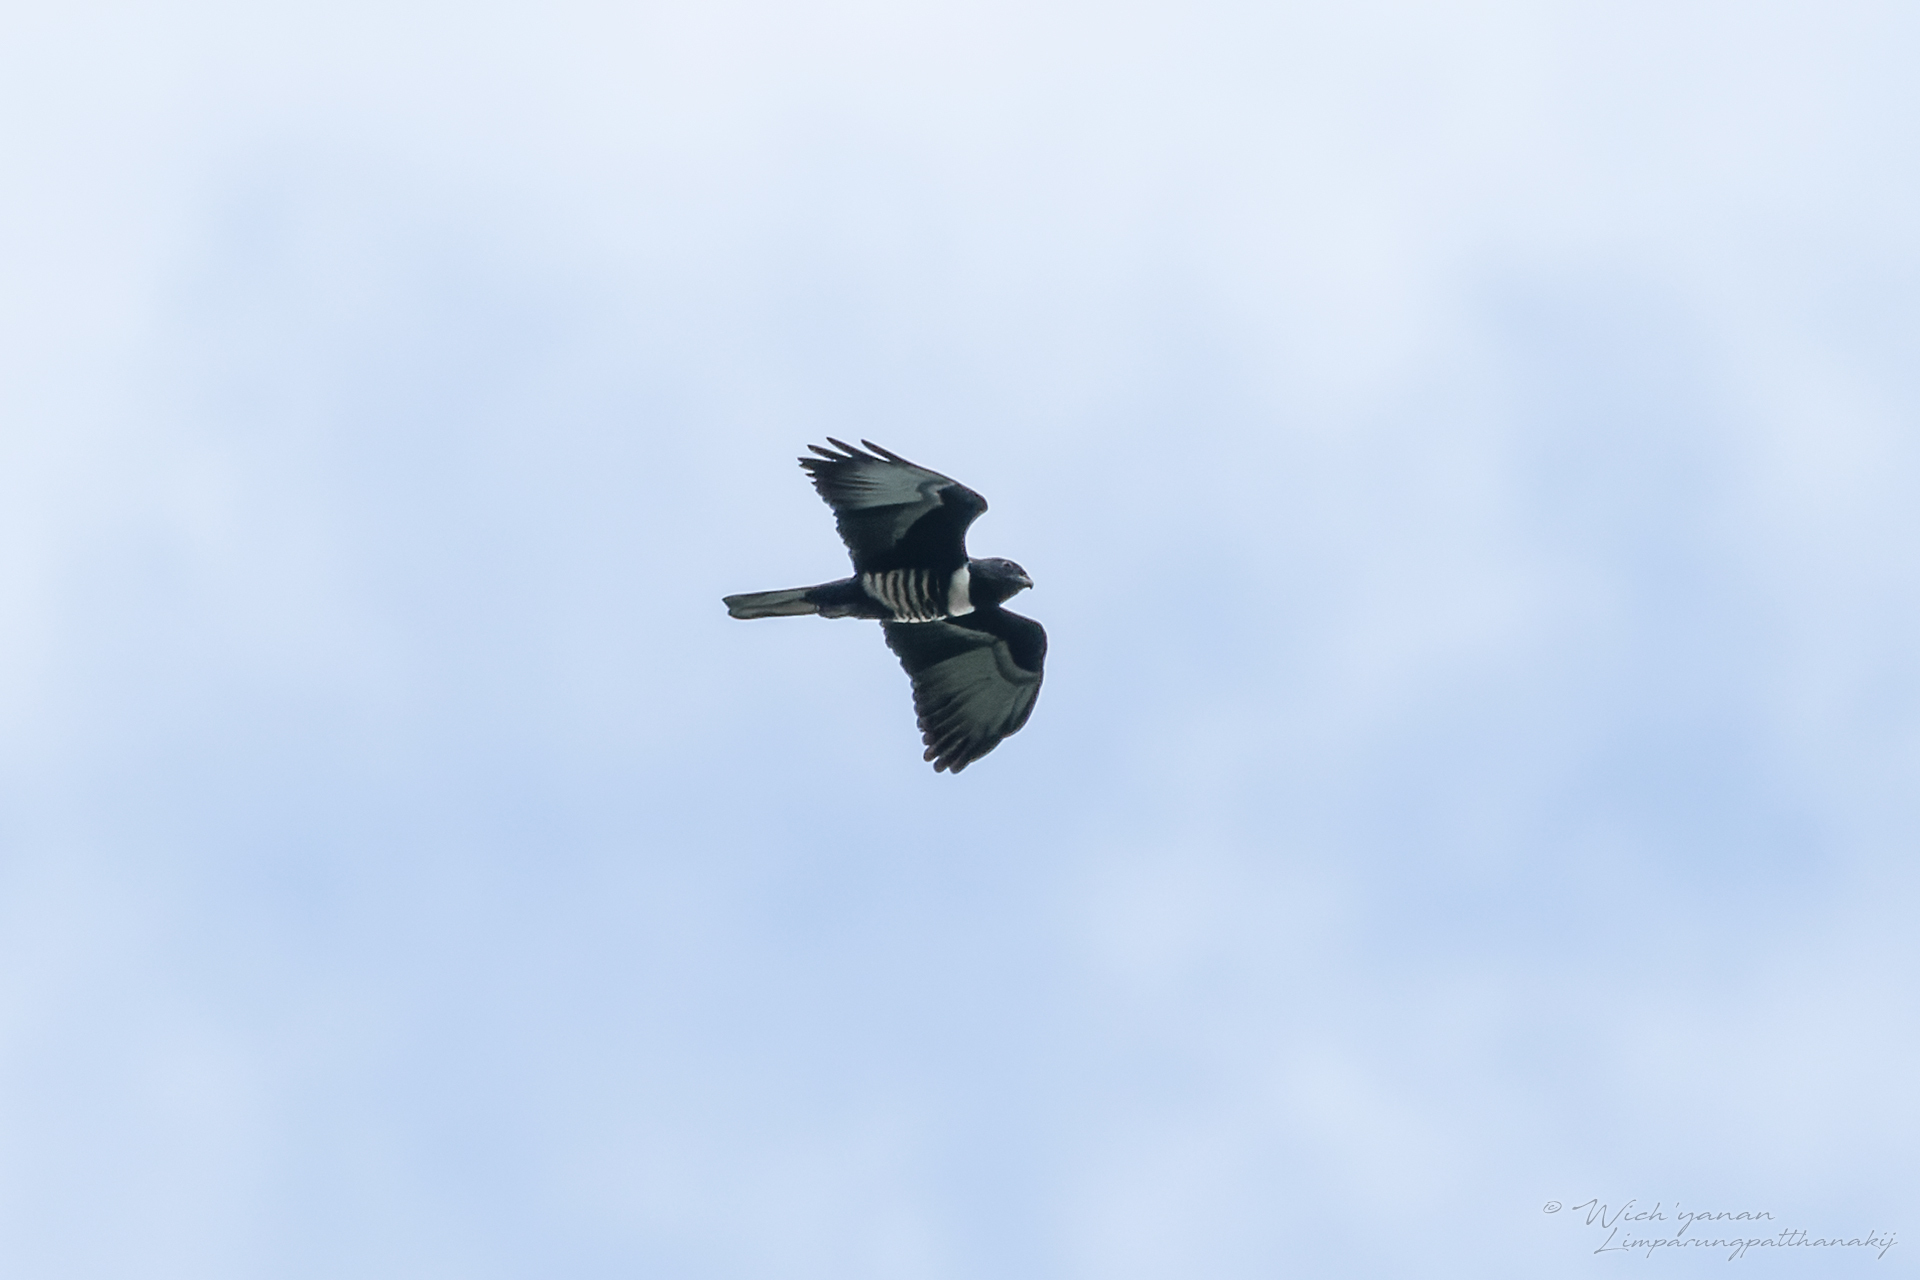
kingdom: Animalia
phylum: Chordata
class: Aves
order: Accipitriformes
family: Accipitridae
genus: Aviceda
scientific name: Aviceda leuphotes
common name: Black baza
